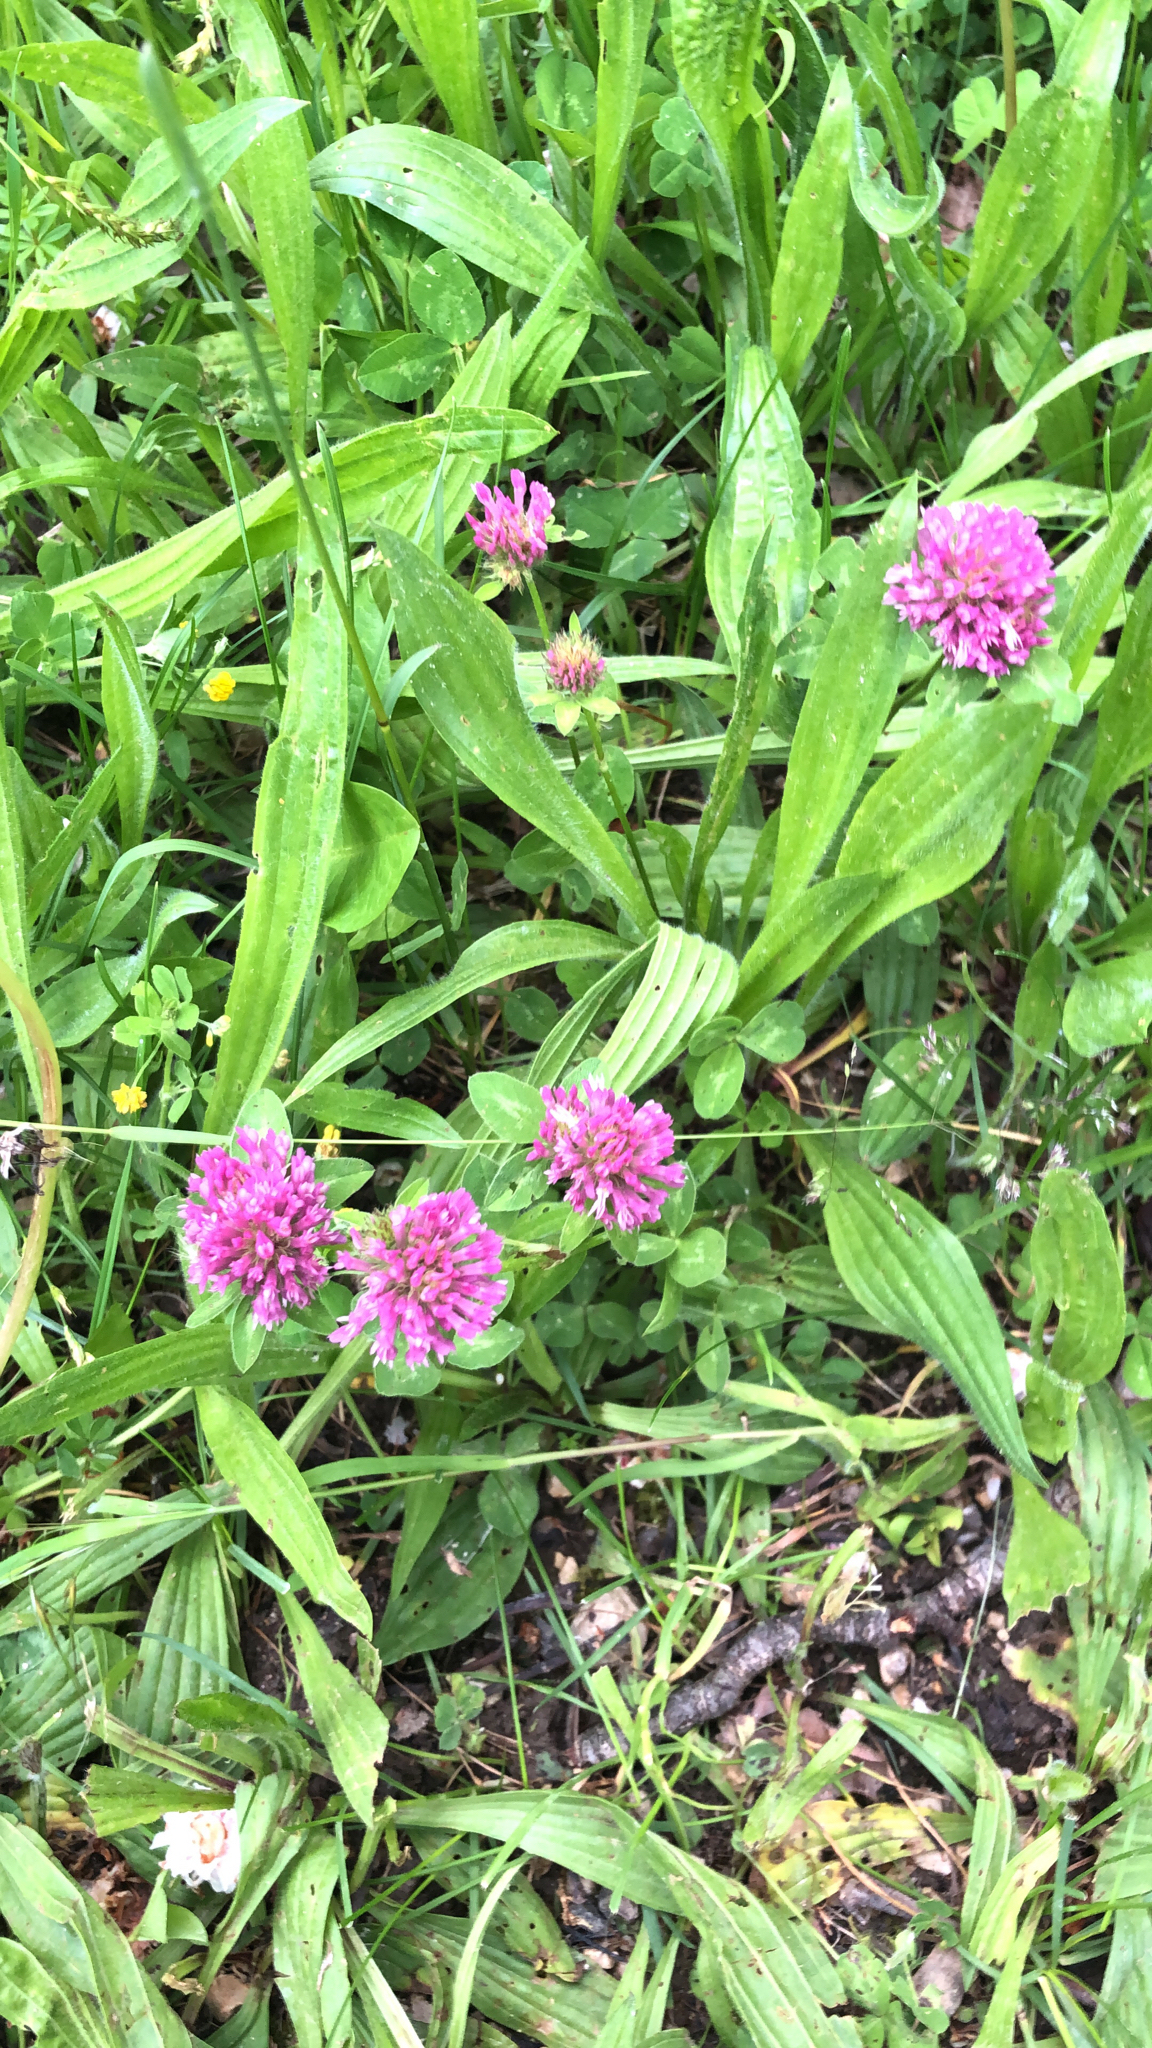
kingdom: Plantae
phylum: Tracheophyta
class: Magnoliopsida
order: Fabales
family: Fabaceae
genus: Trifolium
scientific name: Trifolium pratense
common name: Red clover
